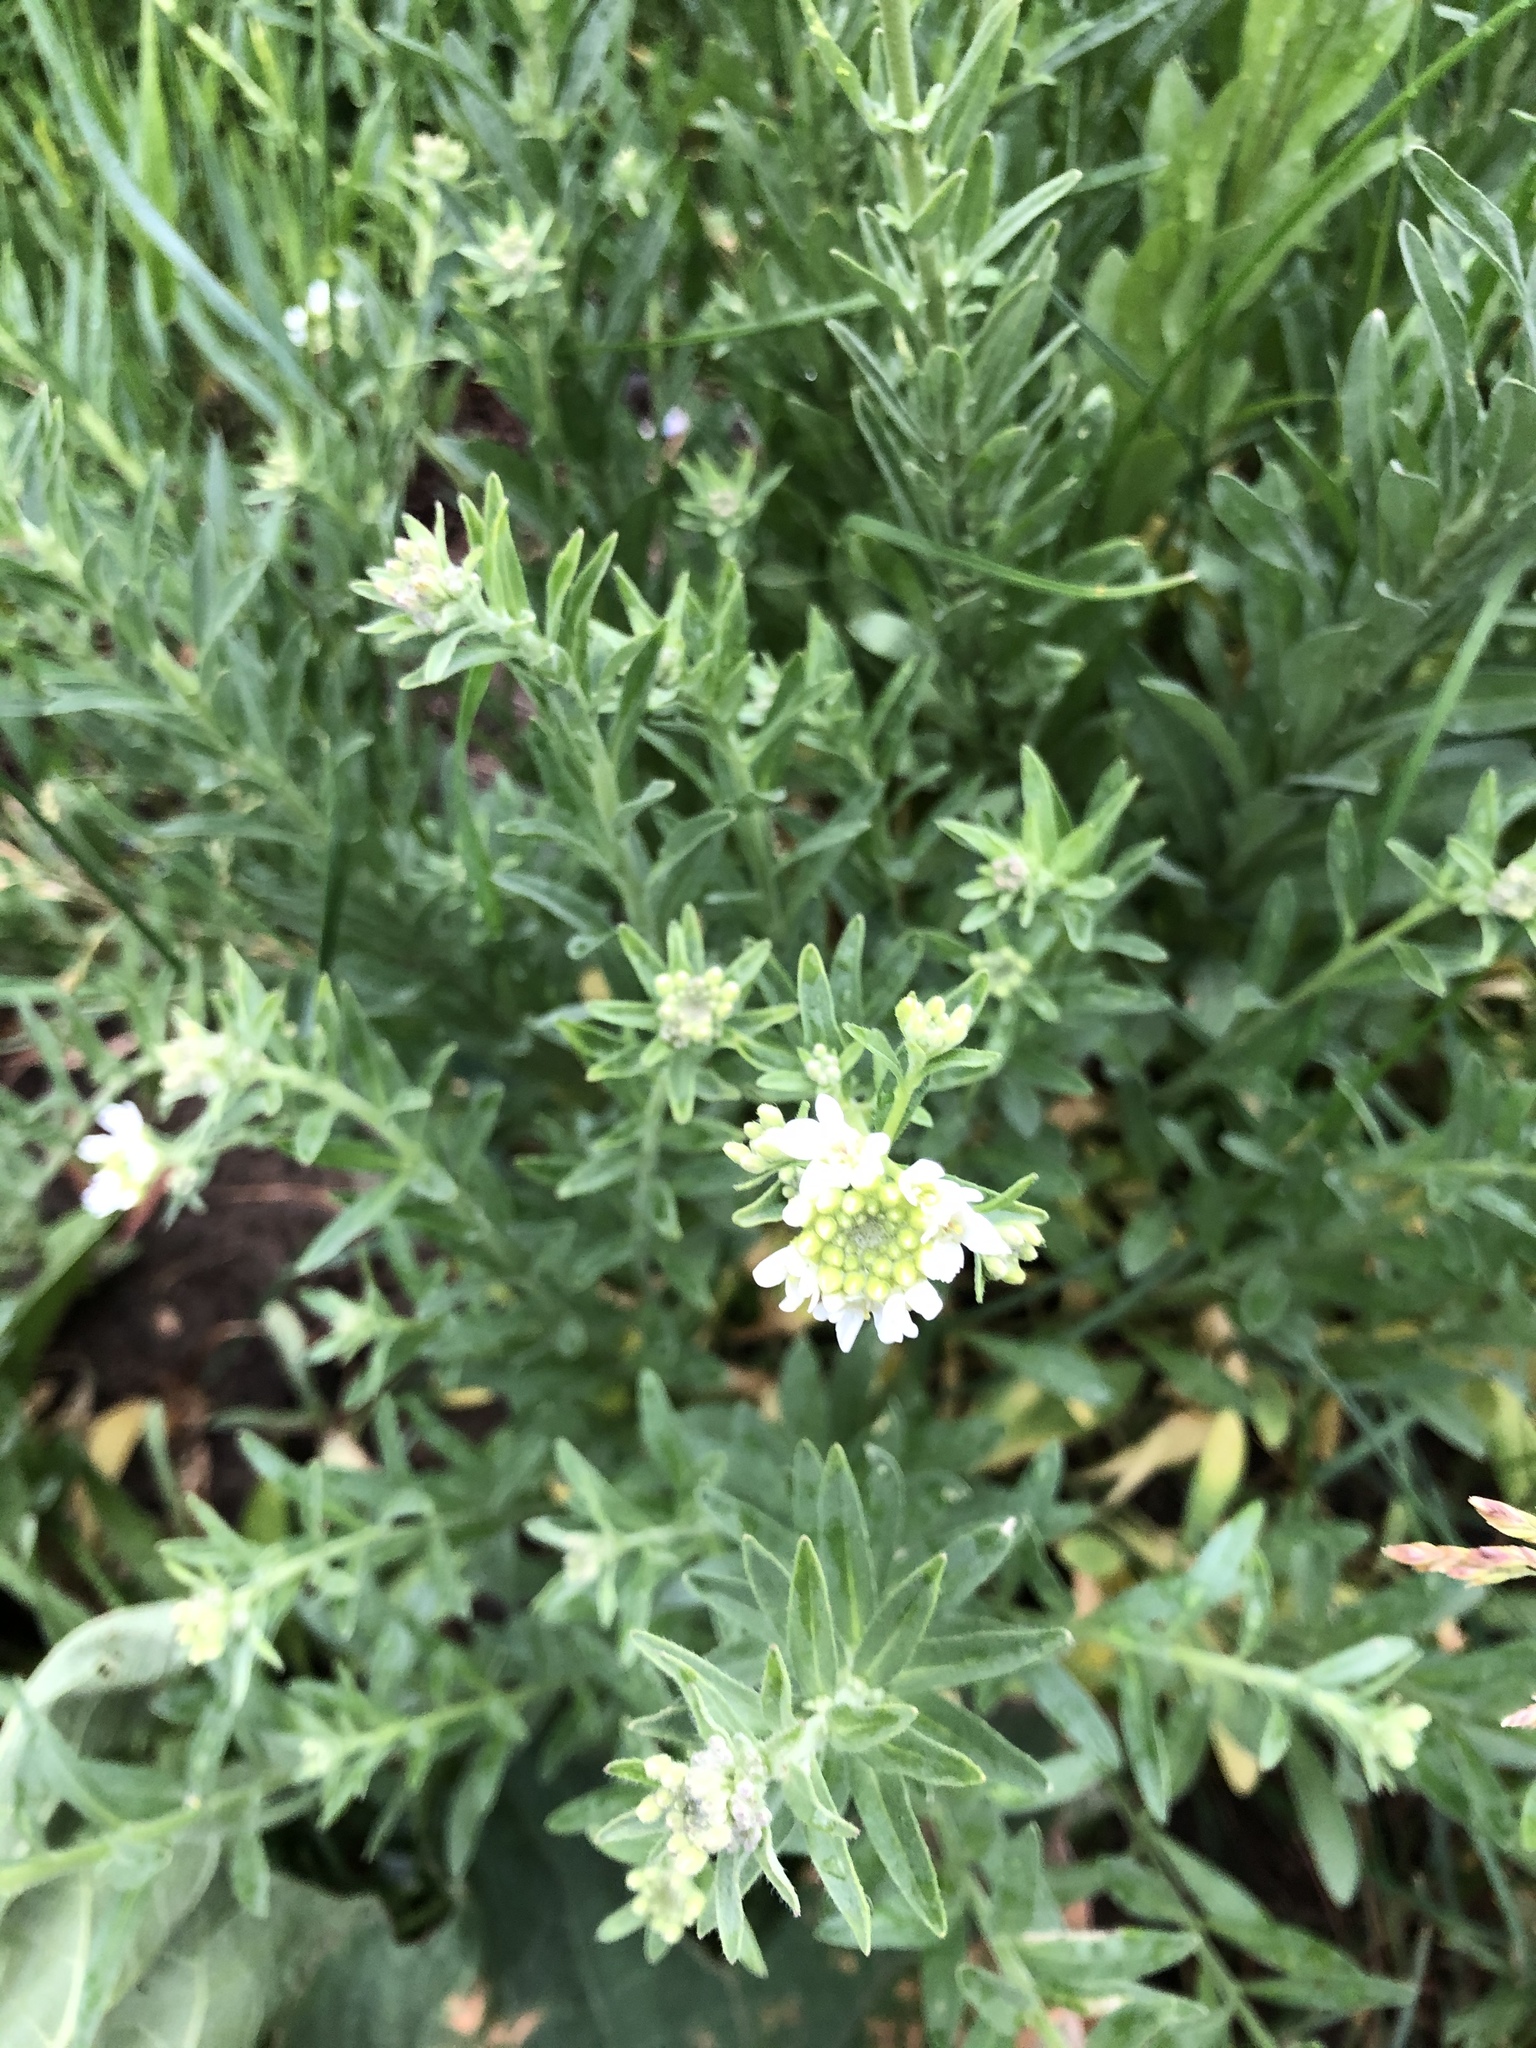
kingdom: Plantae
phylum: Tracheophyta
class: Magnoliopsida
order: Brassicales
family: Brassicaceae
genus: Berteroa
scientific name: Berteroa incana
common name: Hoary alison
